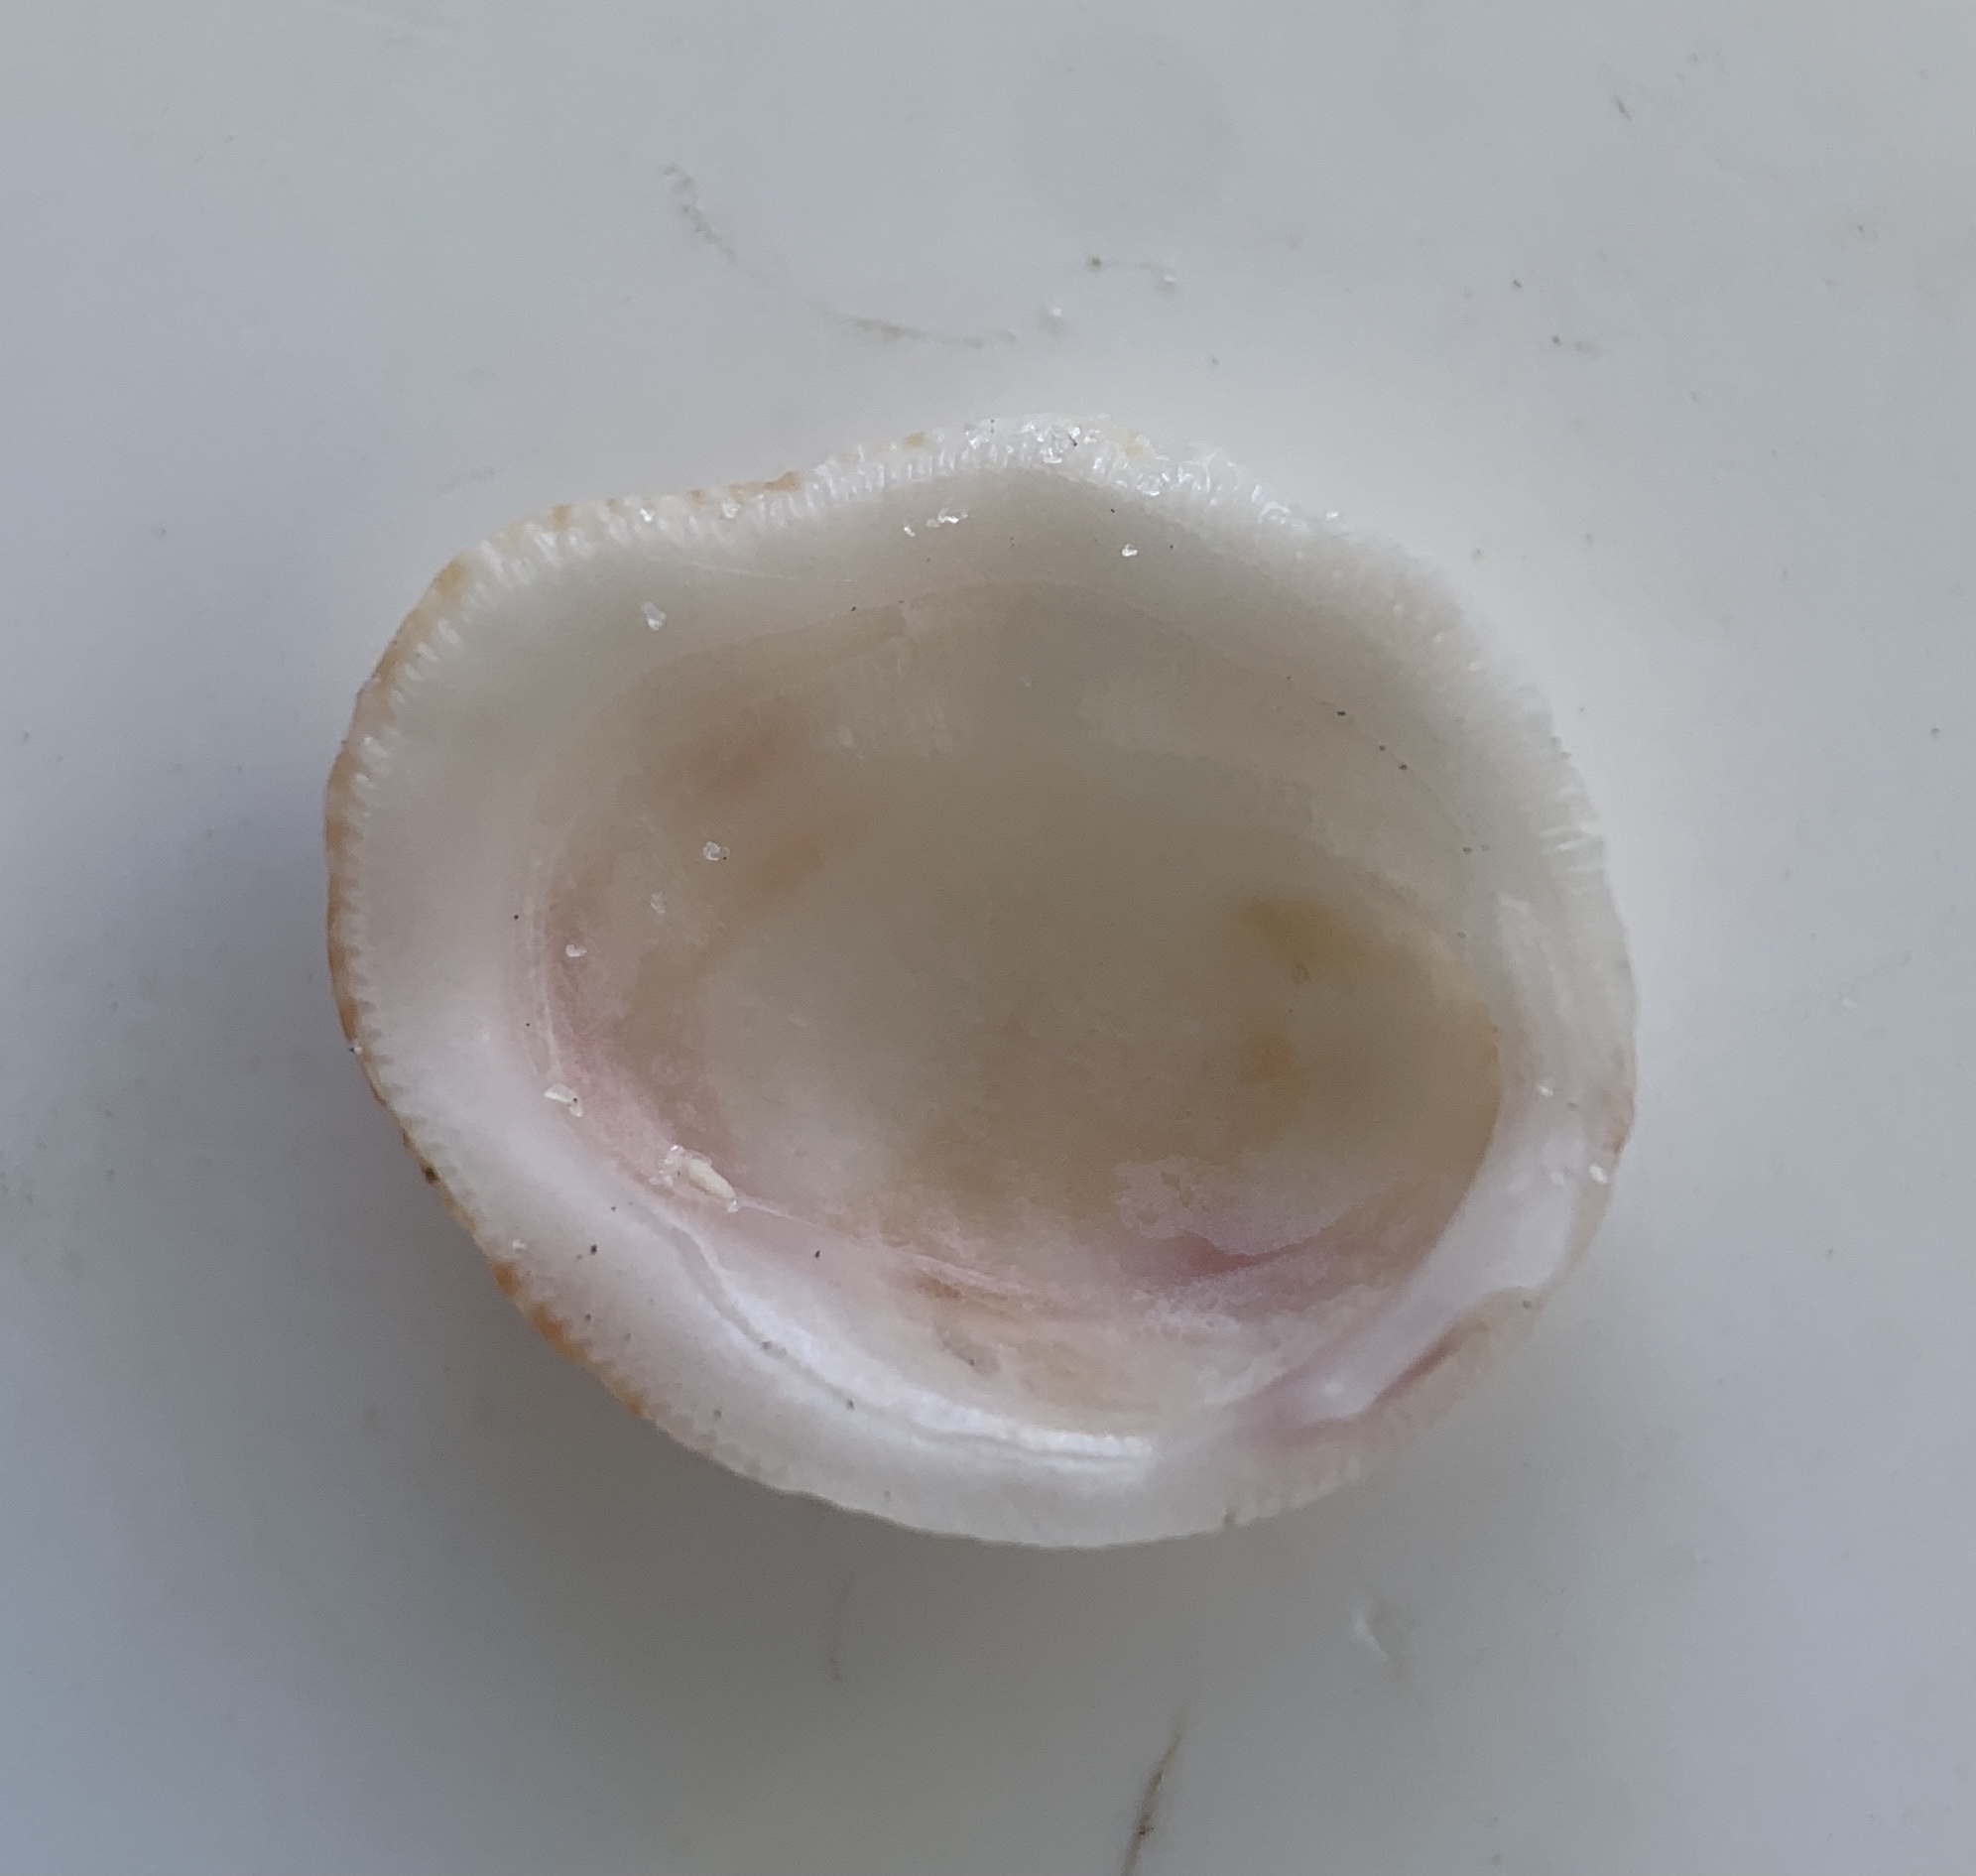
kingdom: Animalia
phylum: Mollusca
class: Bivalvia
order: Venerida
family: Chamidae
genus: Chama
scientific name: Chama congregata
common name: Corrugate jewelbox
